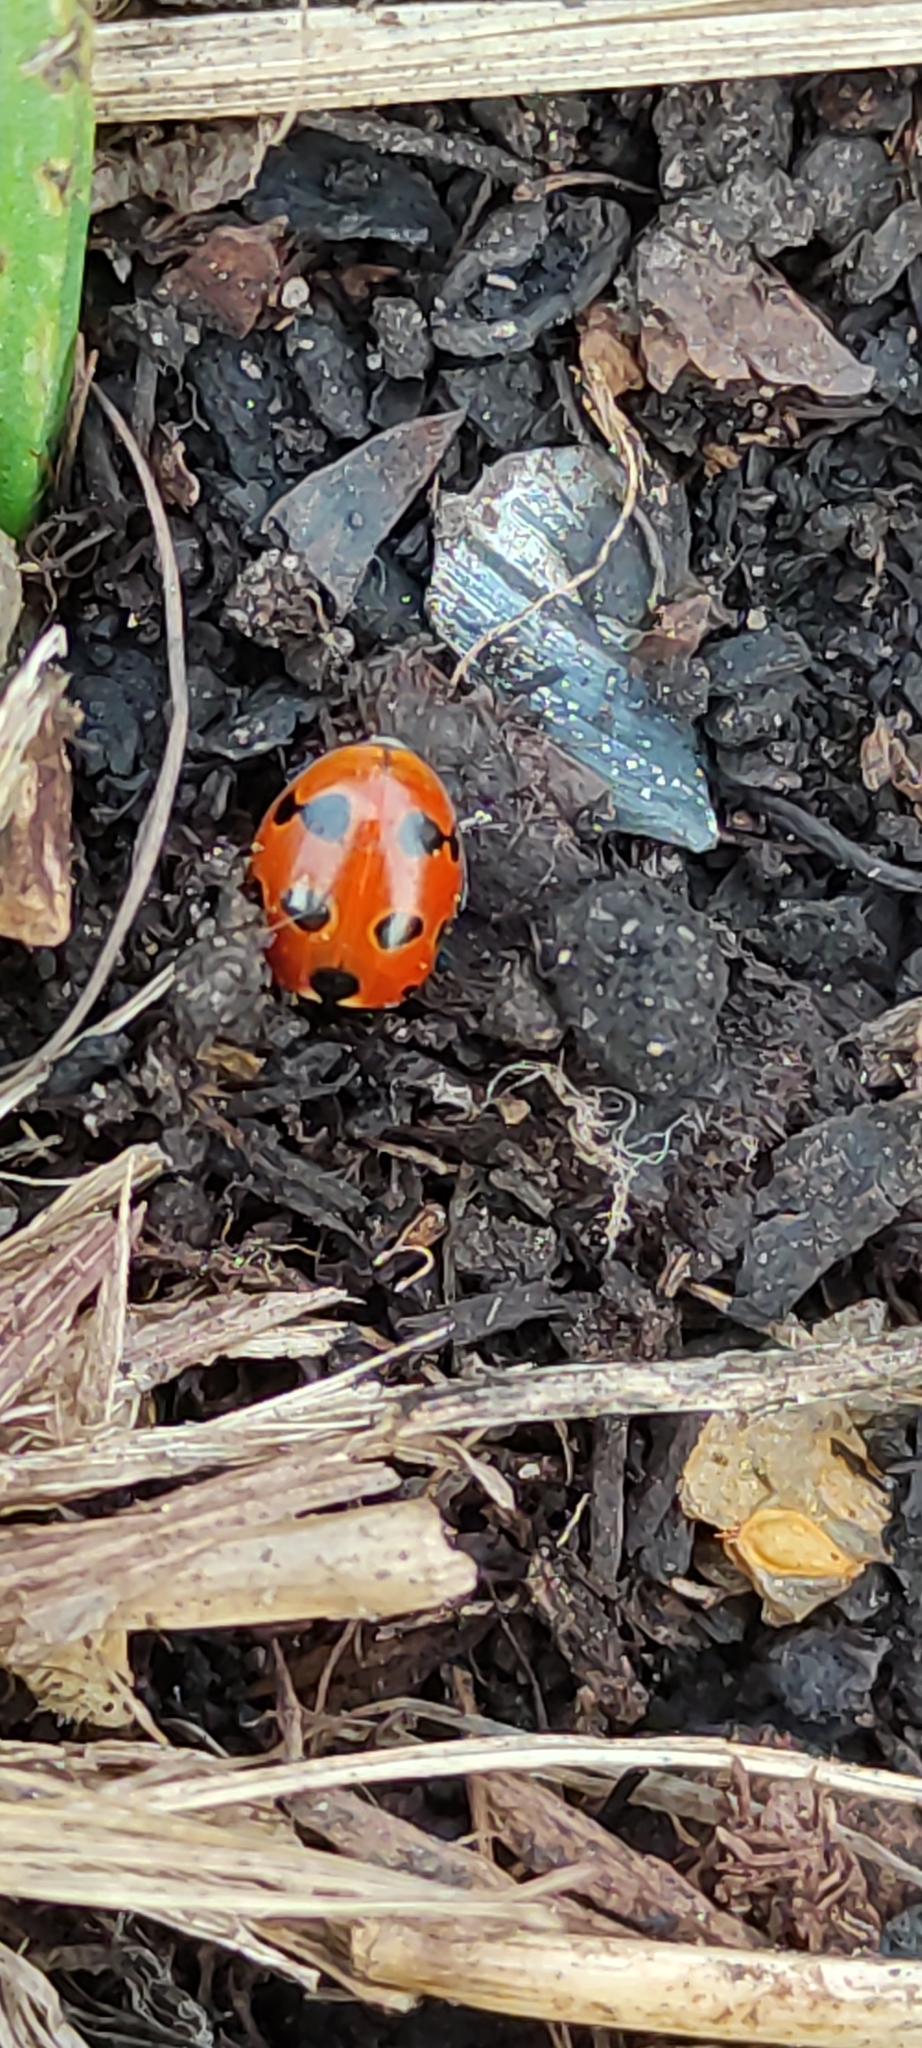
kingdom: Animalia
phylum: Arthropoda
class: Insecta
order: Coleoptera
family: Coccinellidae
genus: Coccinella
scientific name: Coccinella undecimpunctata
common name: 11-spot ladybird
